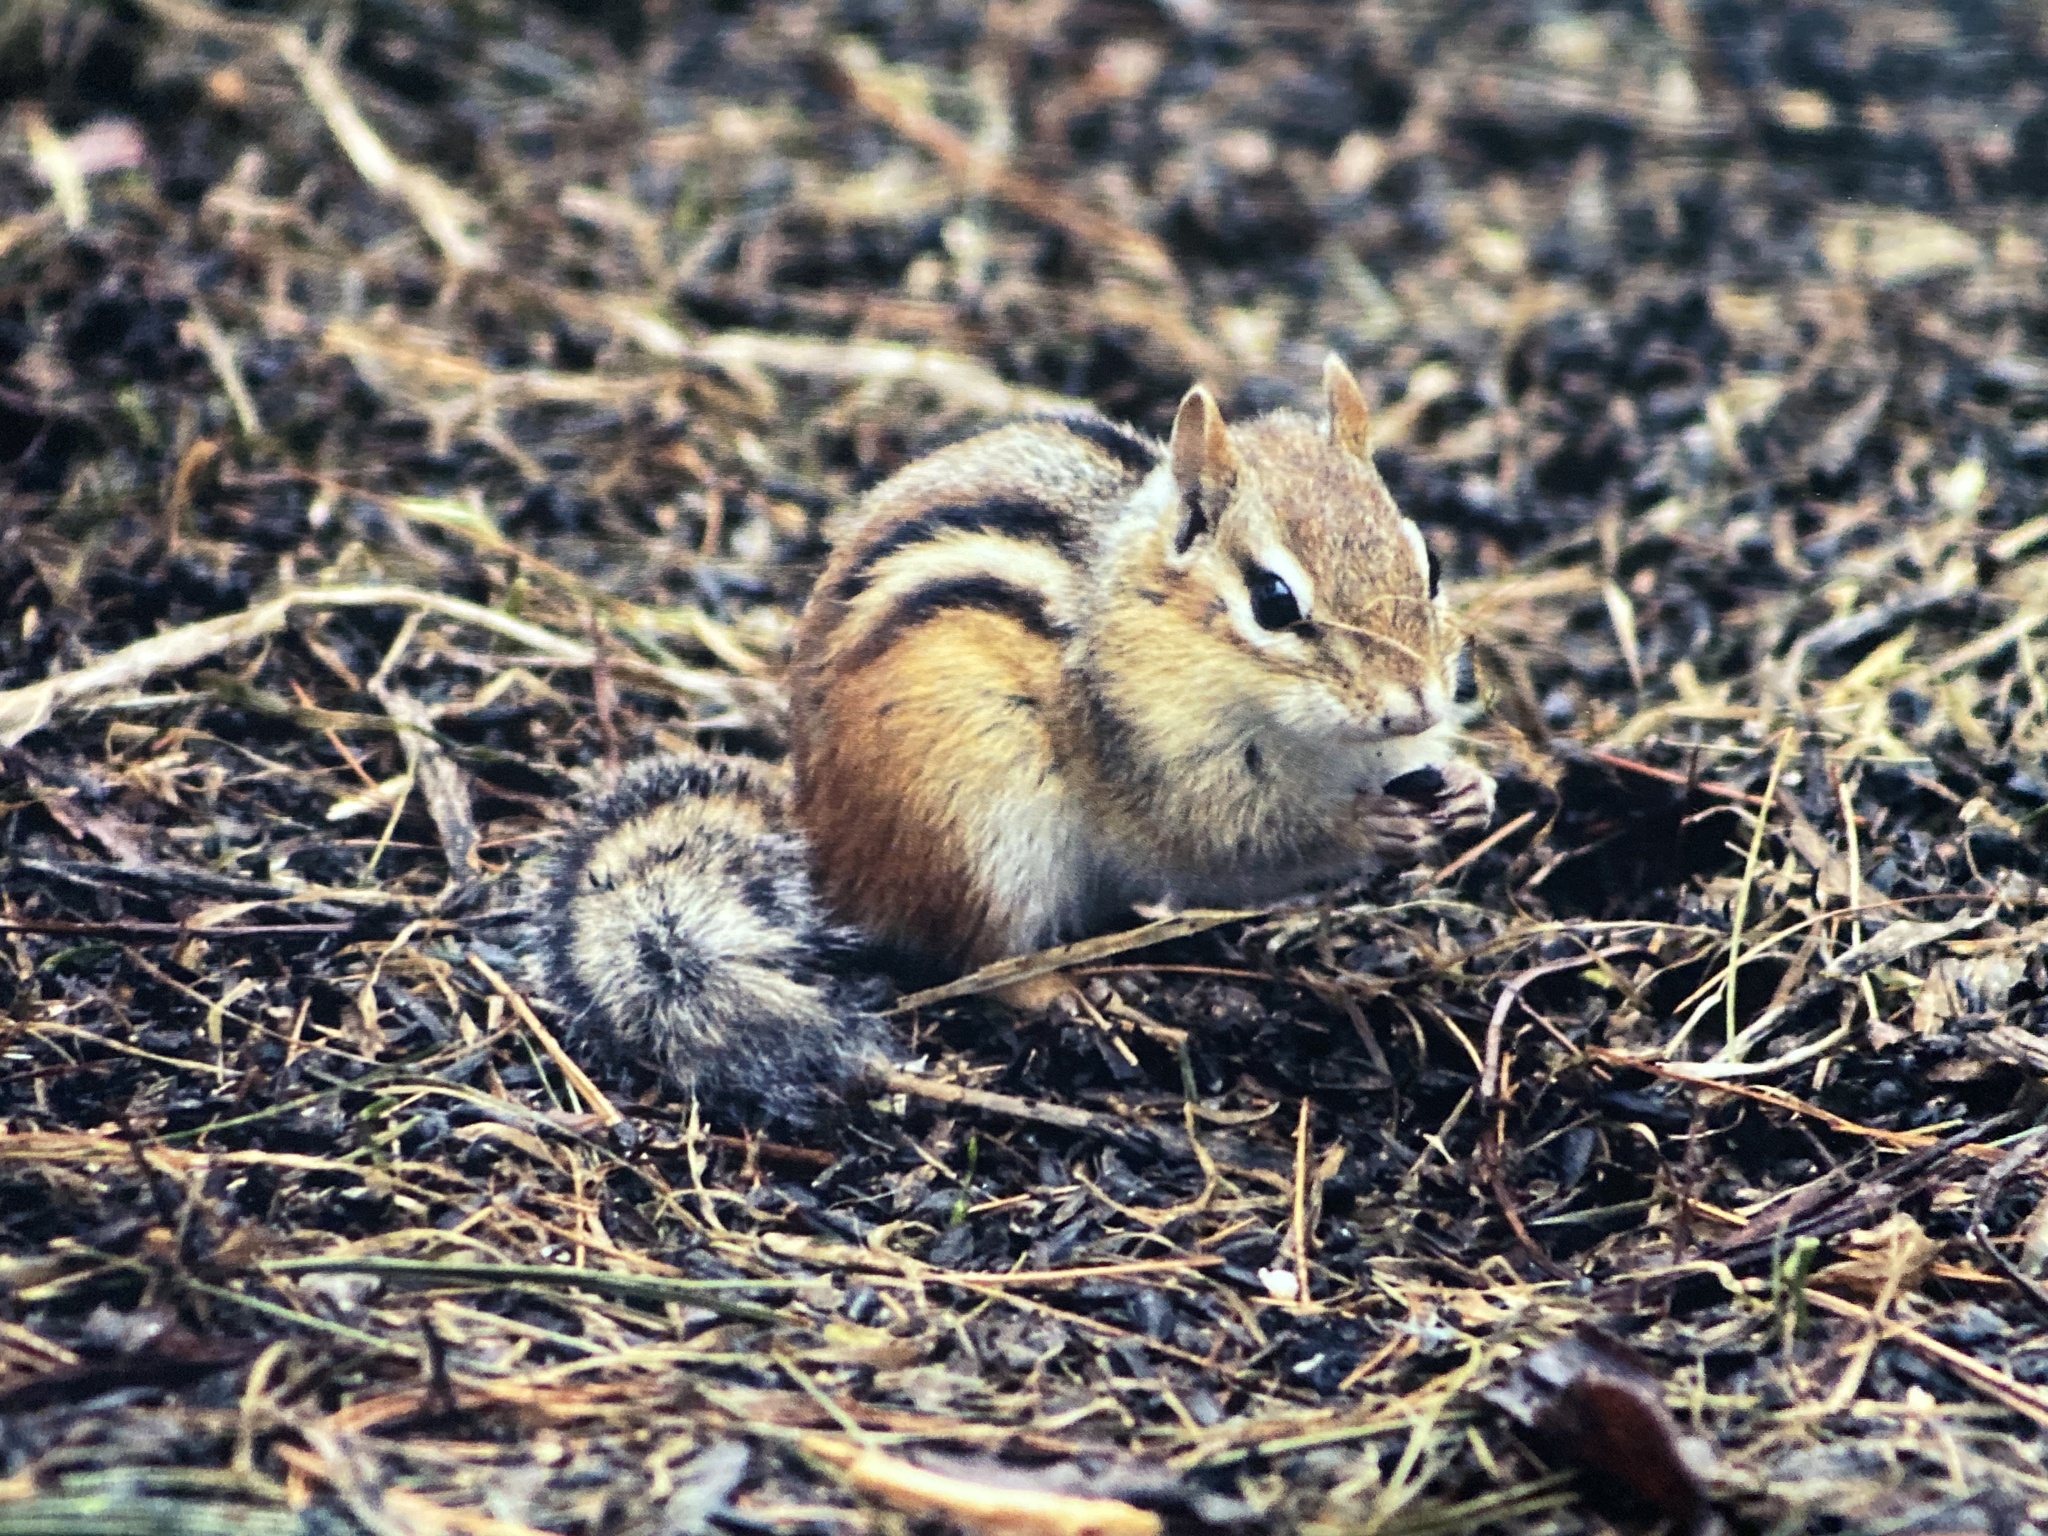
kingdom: Animalia
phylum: Chordata
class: Mammalia
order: Rodentia
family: Sciuridae
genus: Tamias
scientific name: Tamias striatus
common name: Eastern chipmunk
